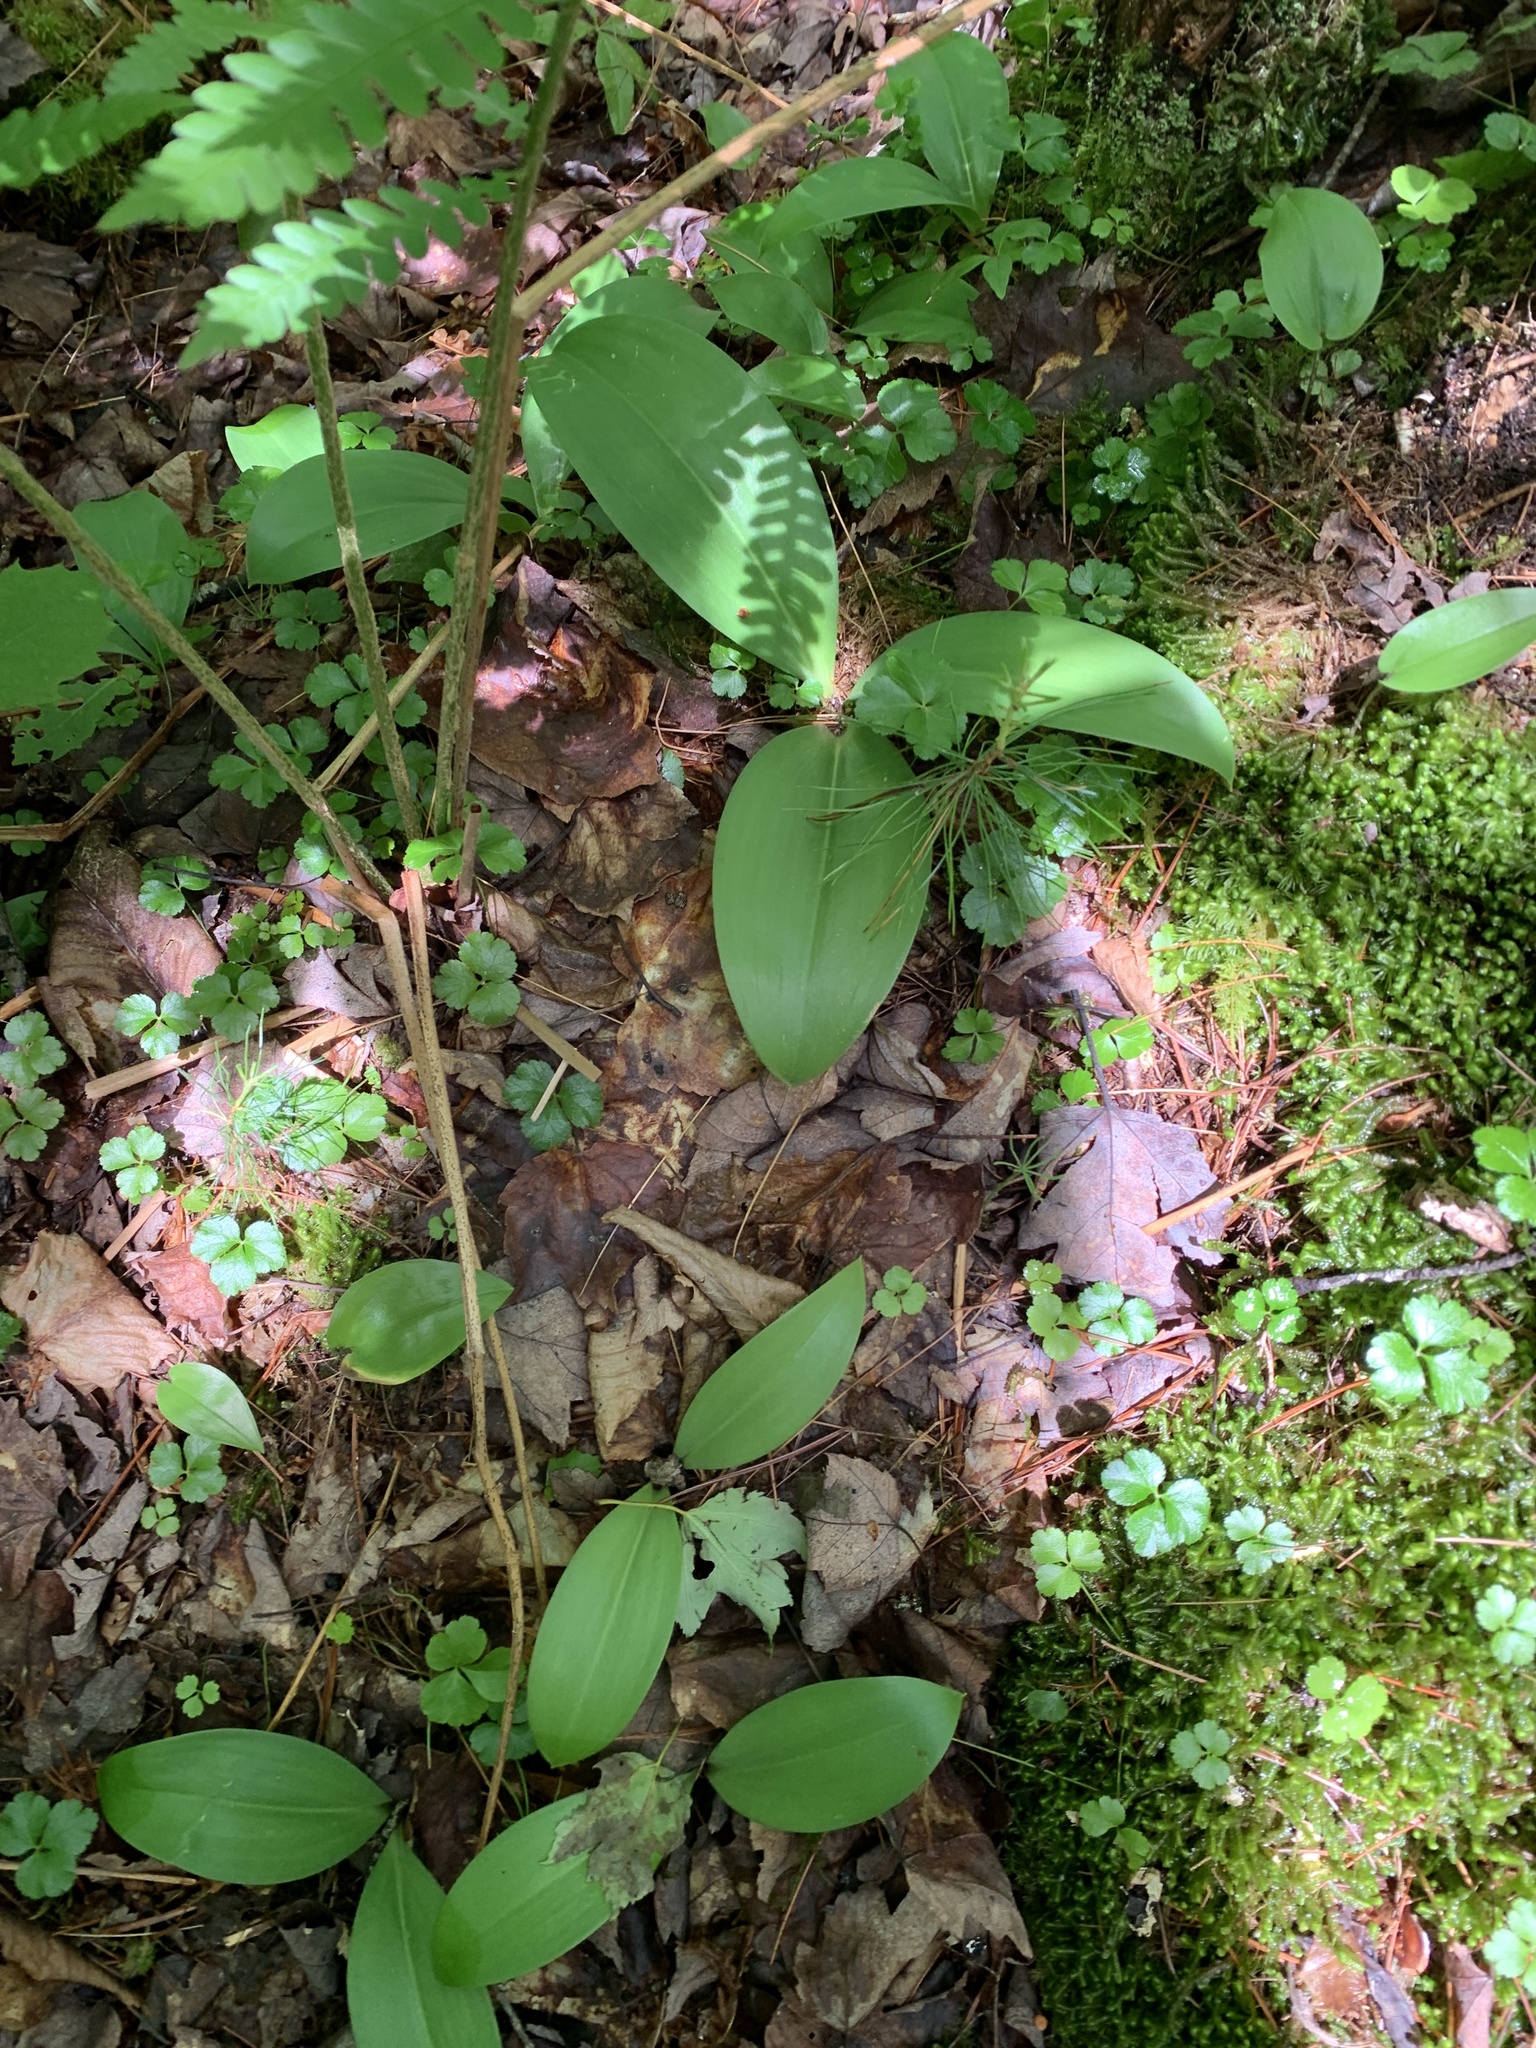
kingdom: Plantae
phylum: Tracheophyta
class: Liliopsida
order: Liliales
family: Liliaceae
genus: Clintonia
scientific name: Clintonia borealis
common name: Yellow clintonia
